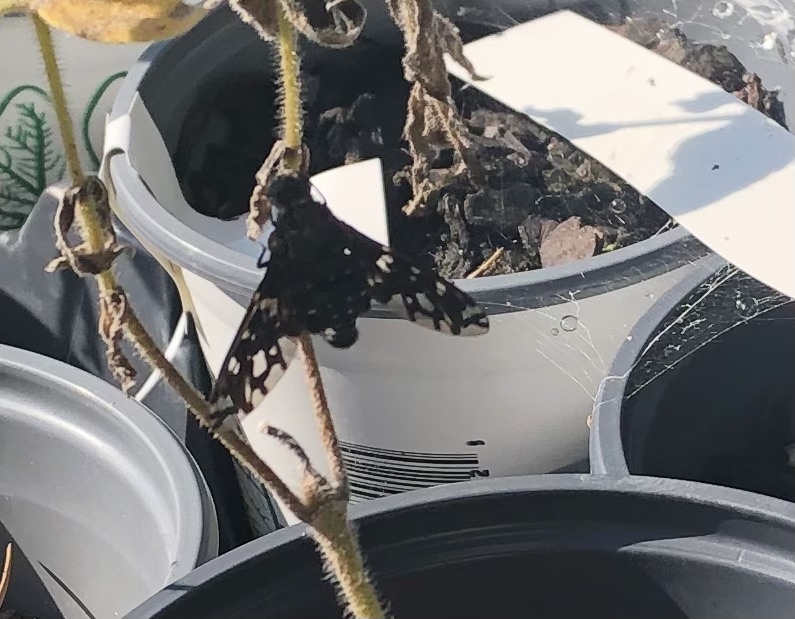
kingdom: Animalia
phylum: Arthropoda
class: Insecta
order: Diptera
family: Bombyliidae
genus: Xenox
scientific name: Xenox tigrinus
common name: Tiger bee fly
